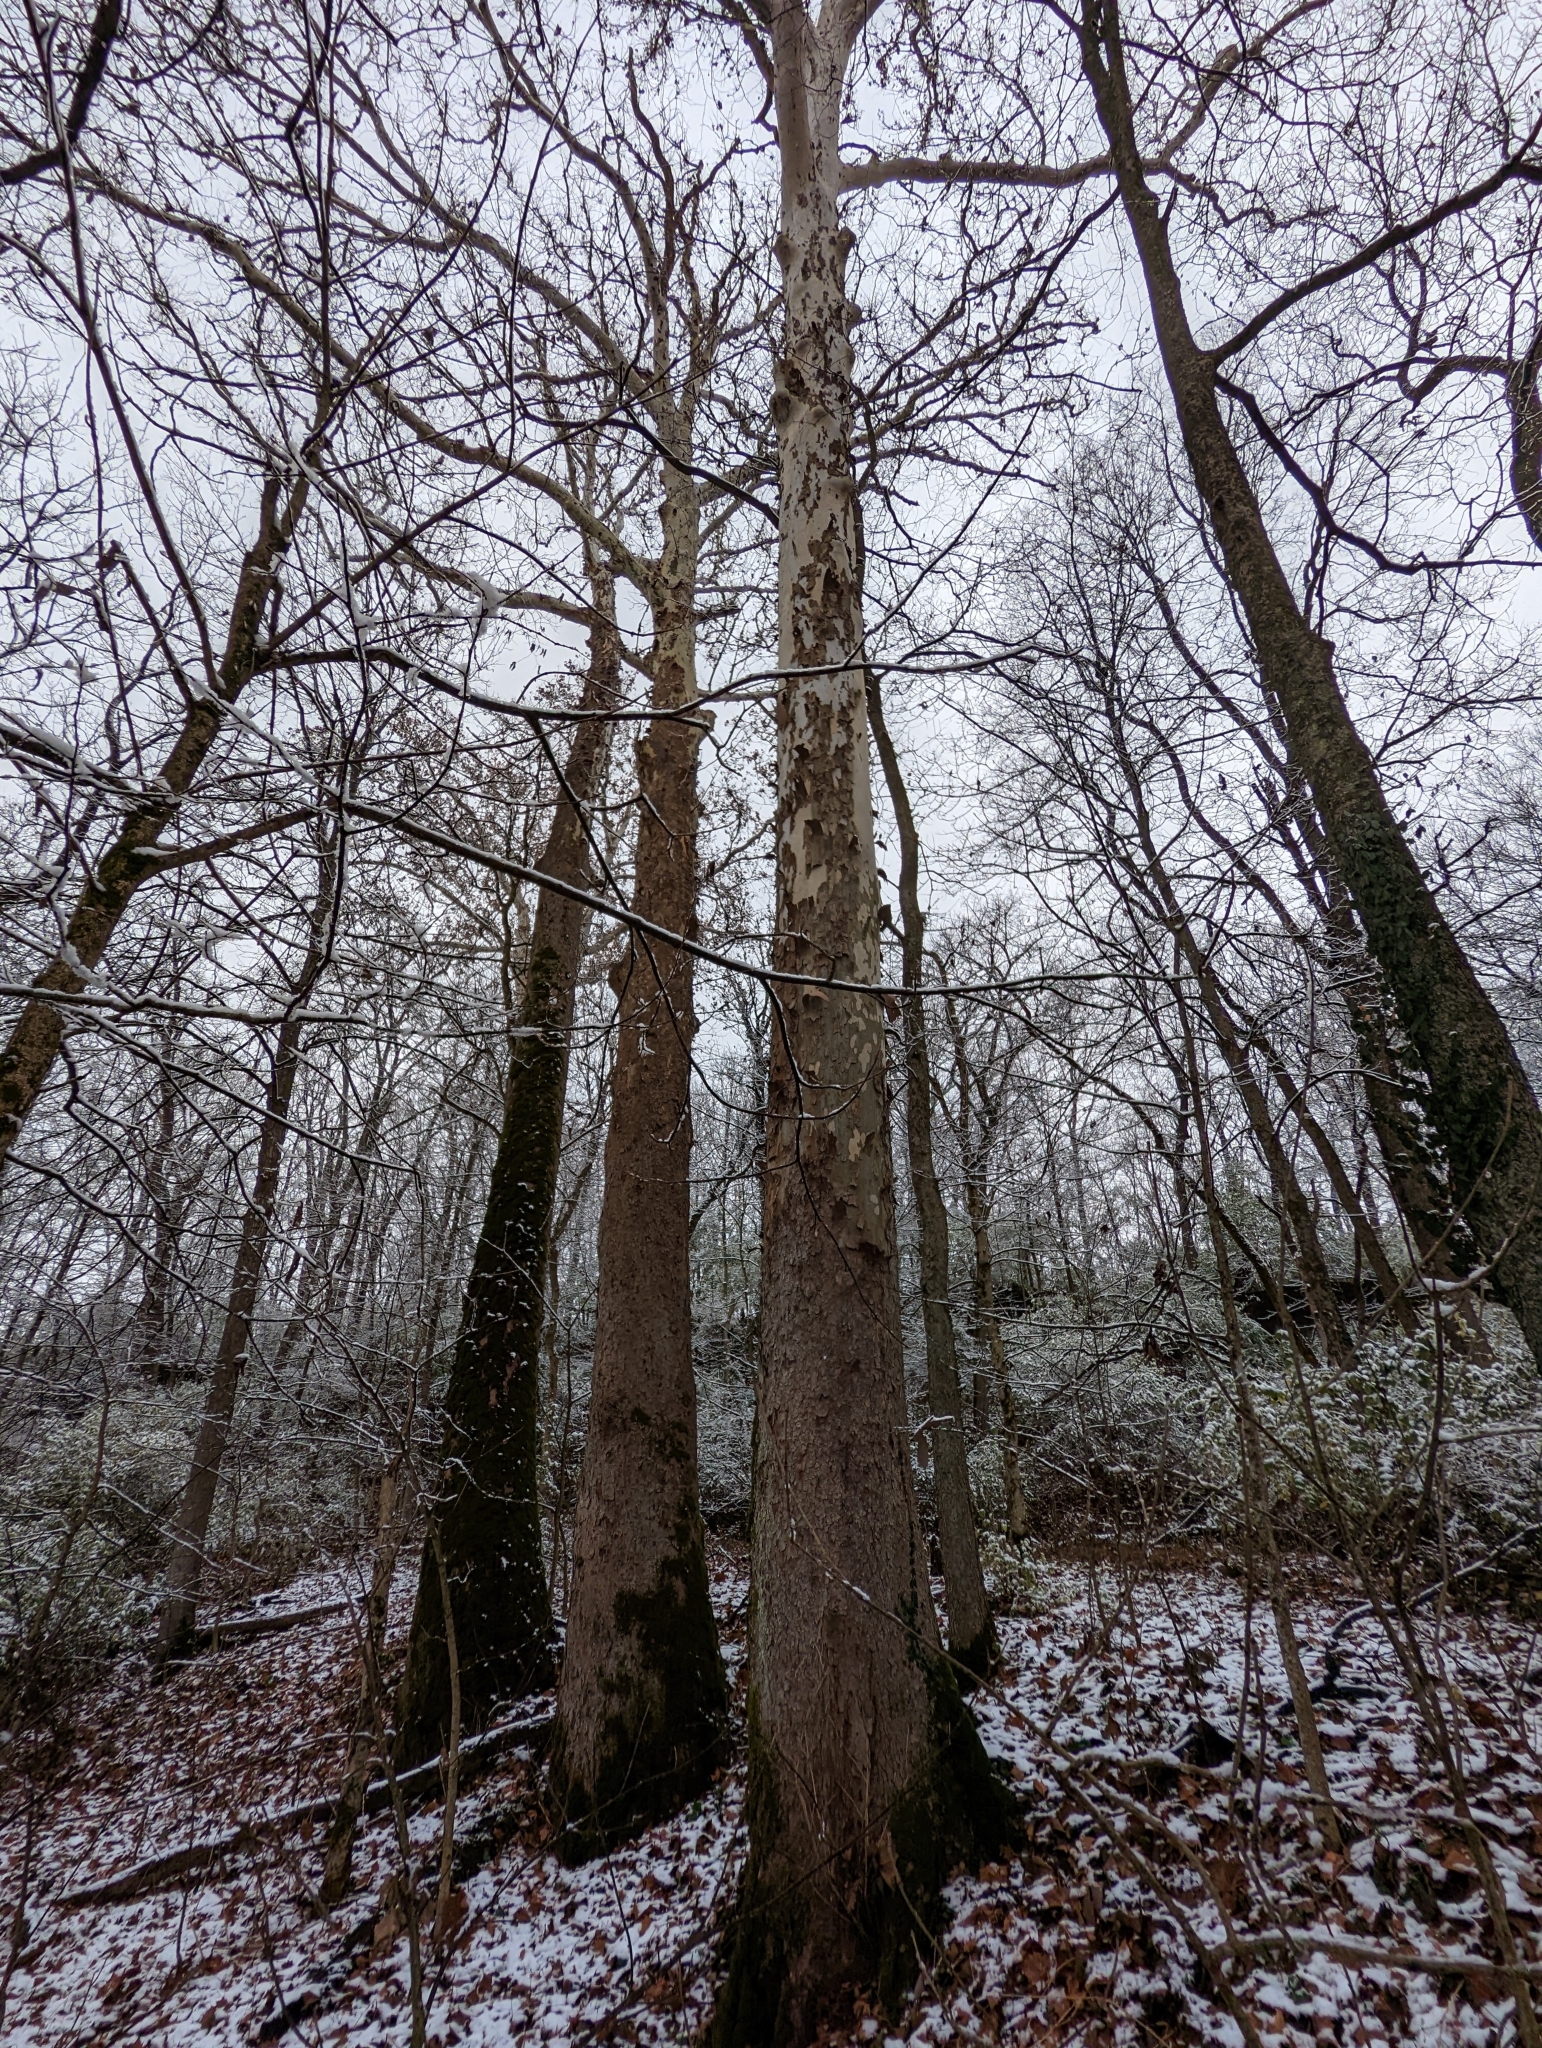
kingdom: Plantae
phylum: Tracheophyta
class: Magnoliopsida
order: Proteales
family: Platanaceae
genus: Platanus
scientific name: Platanus occidentalis
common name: American sycamore
